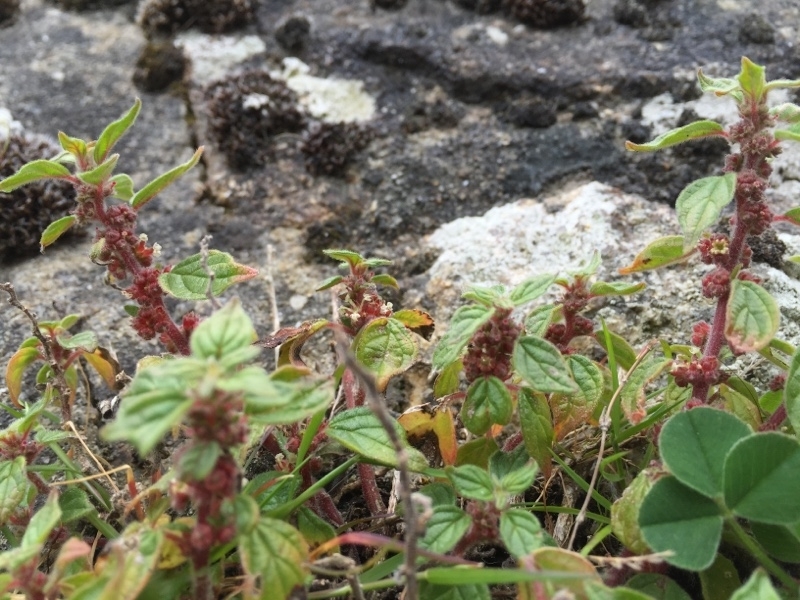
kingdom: Plantae
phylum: Tracheophyta
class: Magnoliopsida
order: Rosales
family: Urticaceae
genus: Parietaria
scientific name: Parietaria judaica
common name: Pellitory-of-the-wall
